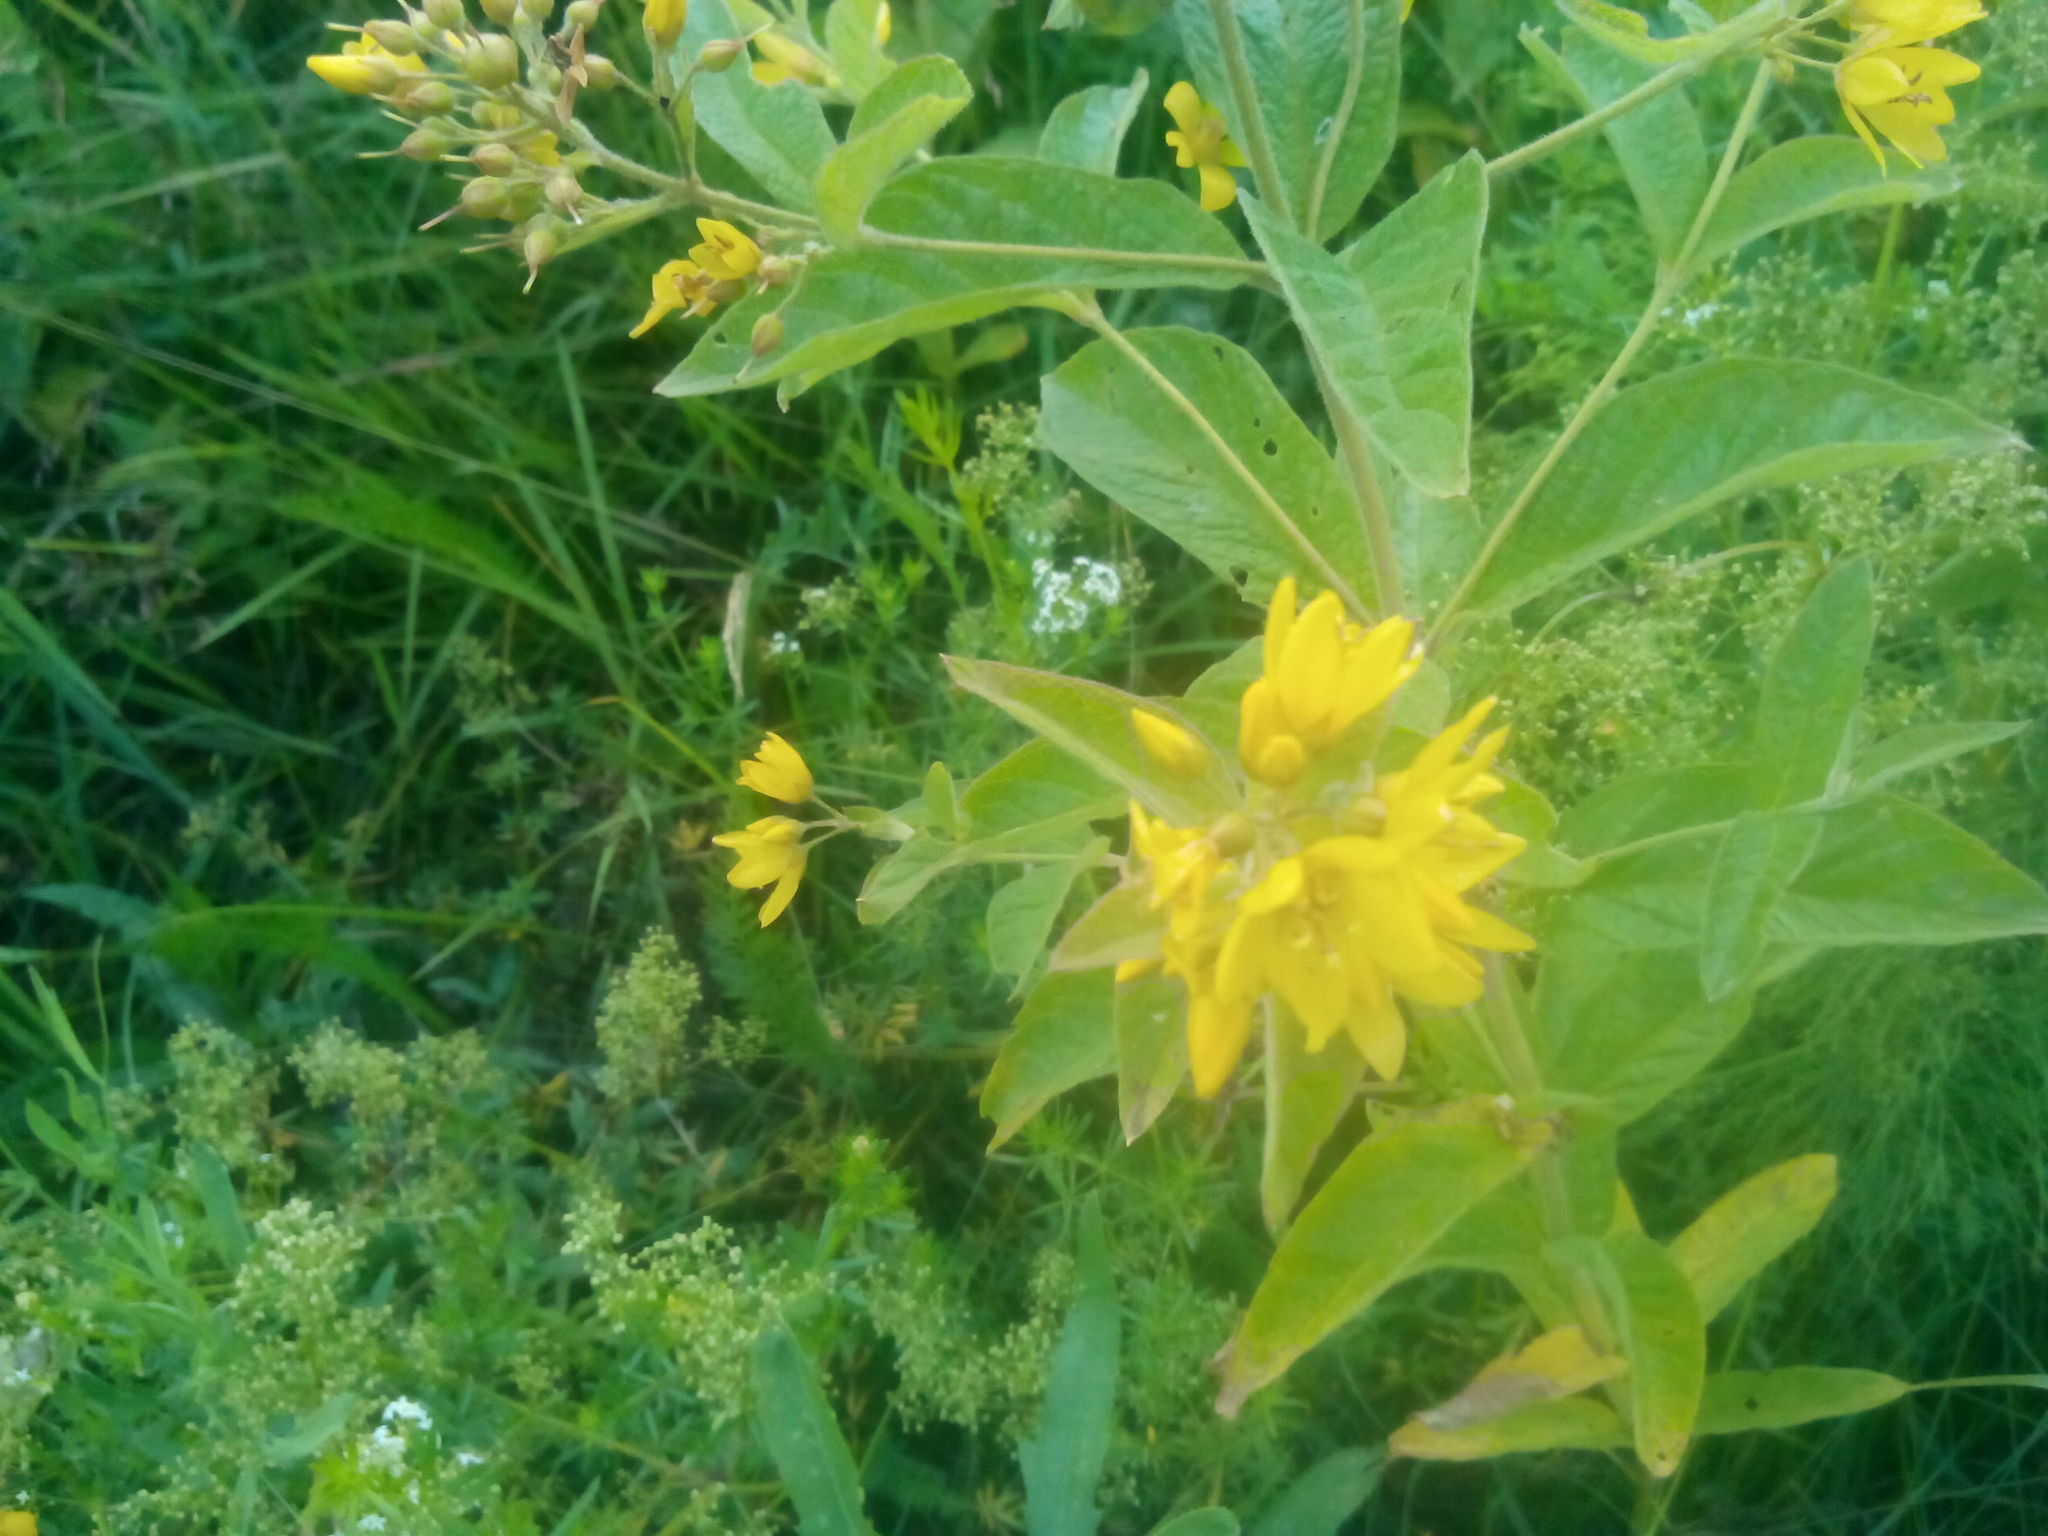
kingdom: Plantae
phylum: Tracheophyta
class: Magnoliopsida
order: Ericales
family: Primulaceae
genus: Lysimachia
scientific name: Lysimachia vulgaris
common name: Yellow loosestrife
